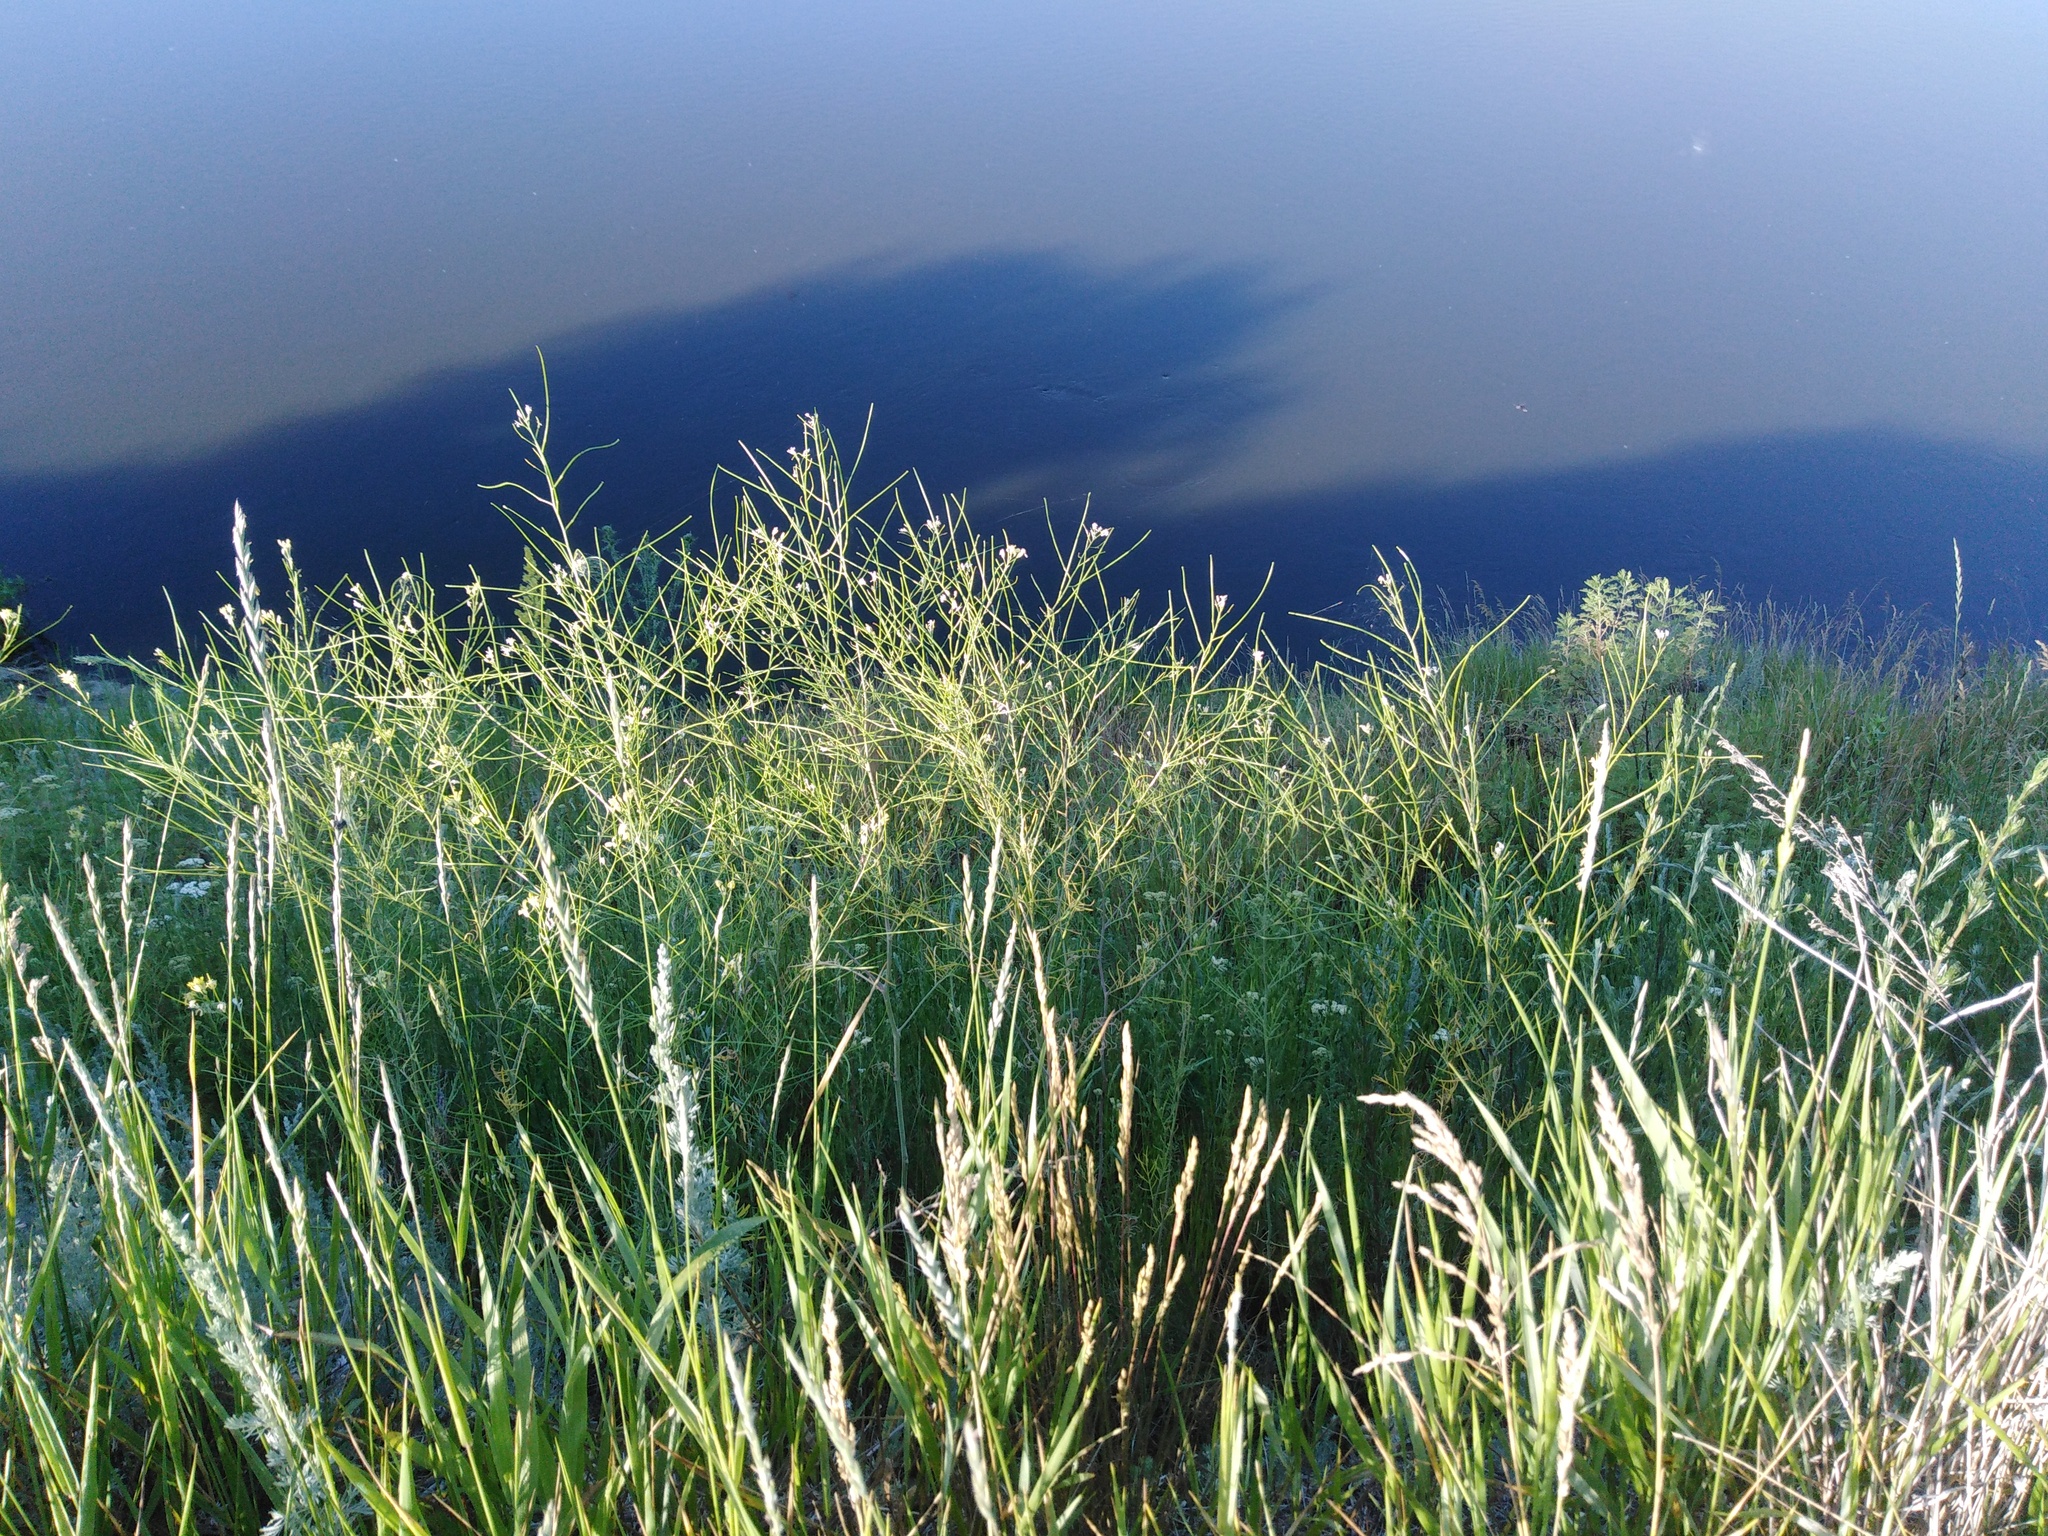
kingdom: Plantae
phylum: Tracheophyta
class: Magnoliopsida
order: Brassicales
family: Brassicaceae
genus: Sisymbrium
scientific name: Sisymbrium altissimum
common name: Tall rocket
